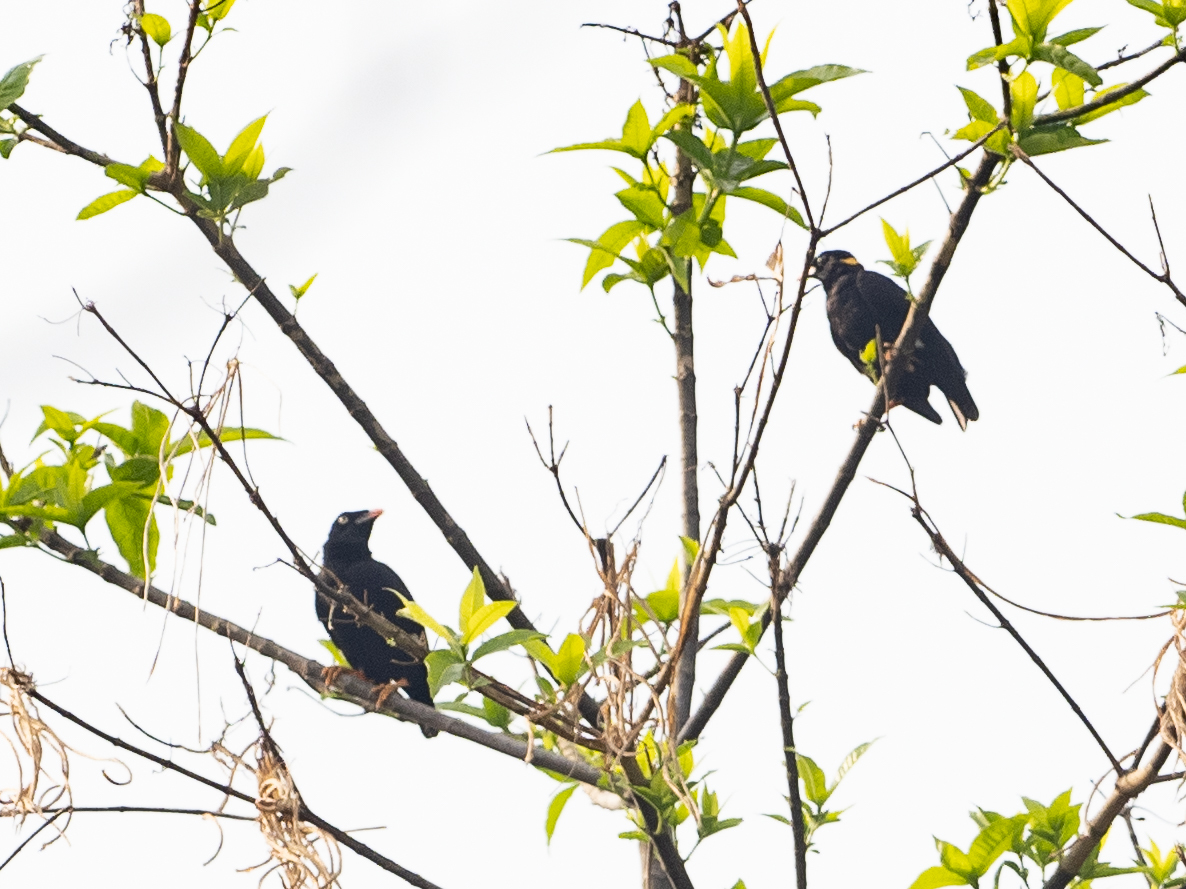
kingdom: Animalia
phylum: Chordata
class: Aves
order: Passeriformes
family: Sturnidae
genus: Gracula
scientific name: Gracula ptilogenys
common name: Sri lanka hill myna
